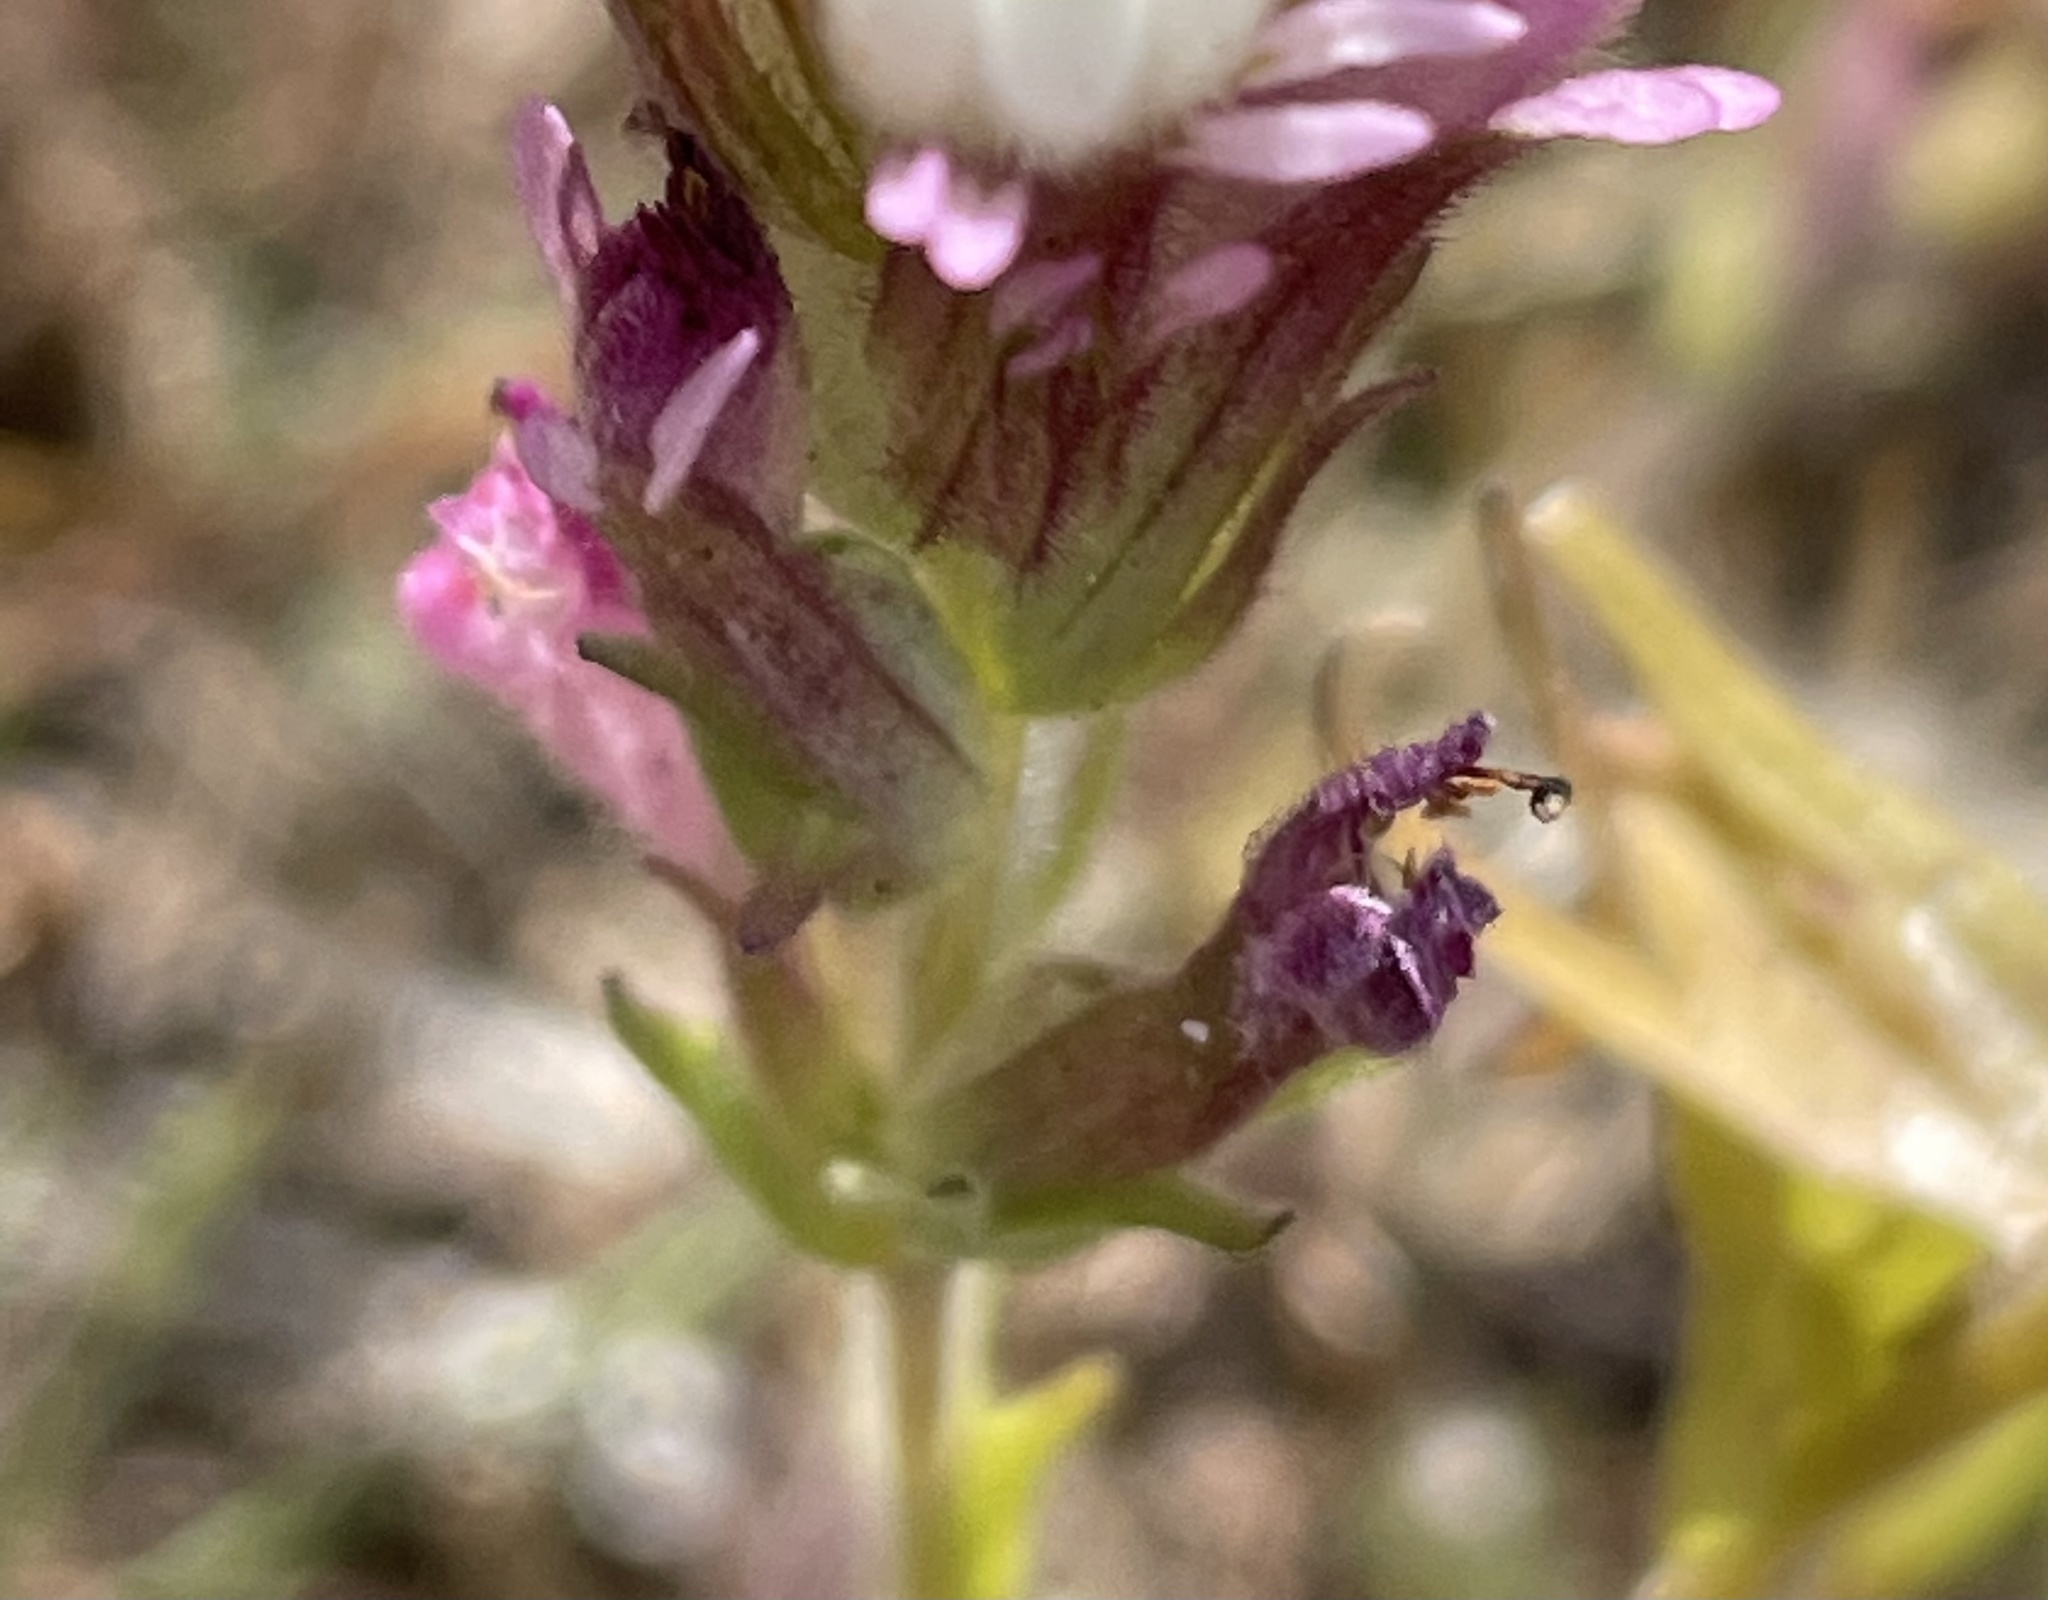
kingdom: Plantae
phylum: Tracheophyta
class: Magnoliopsida
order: Lamiales
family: Orobanchaceae
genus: Castilleja
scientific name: Castilleja densiflora
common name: Dense-flower indian paintbrush
